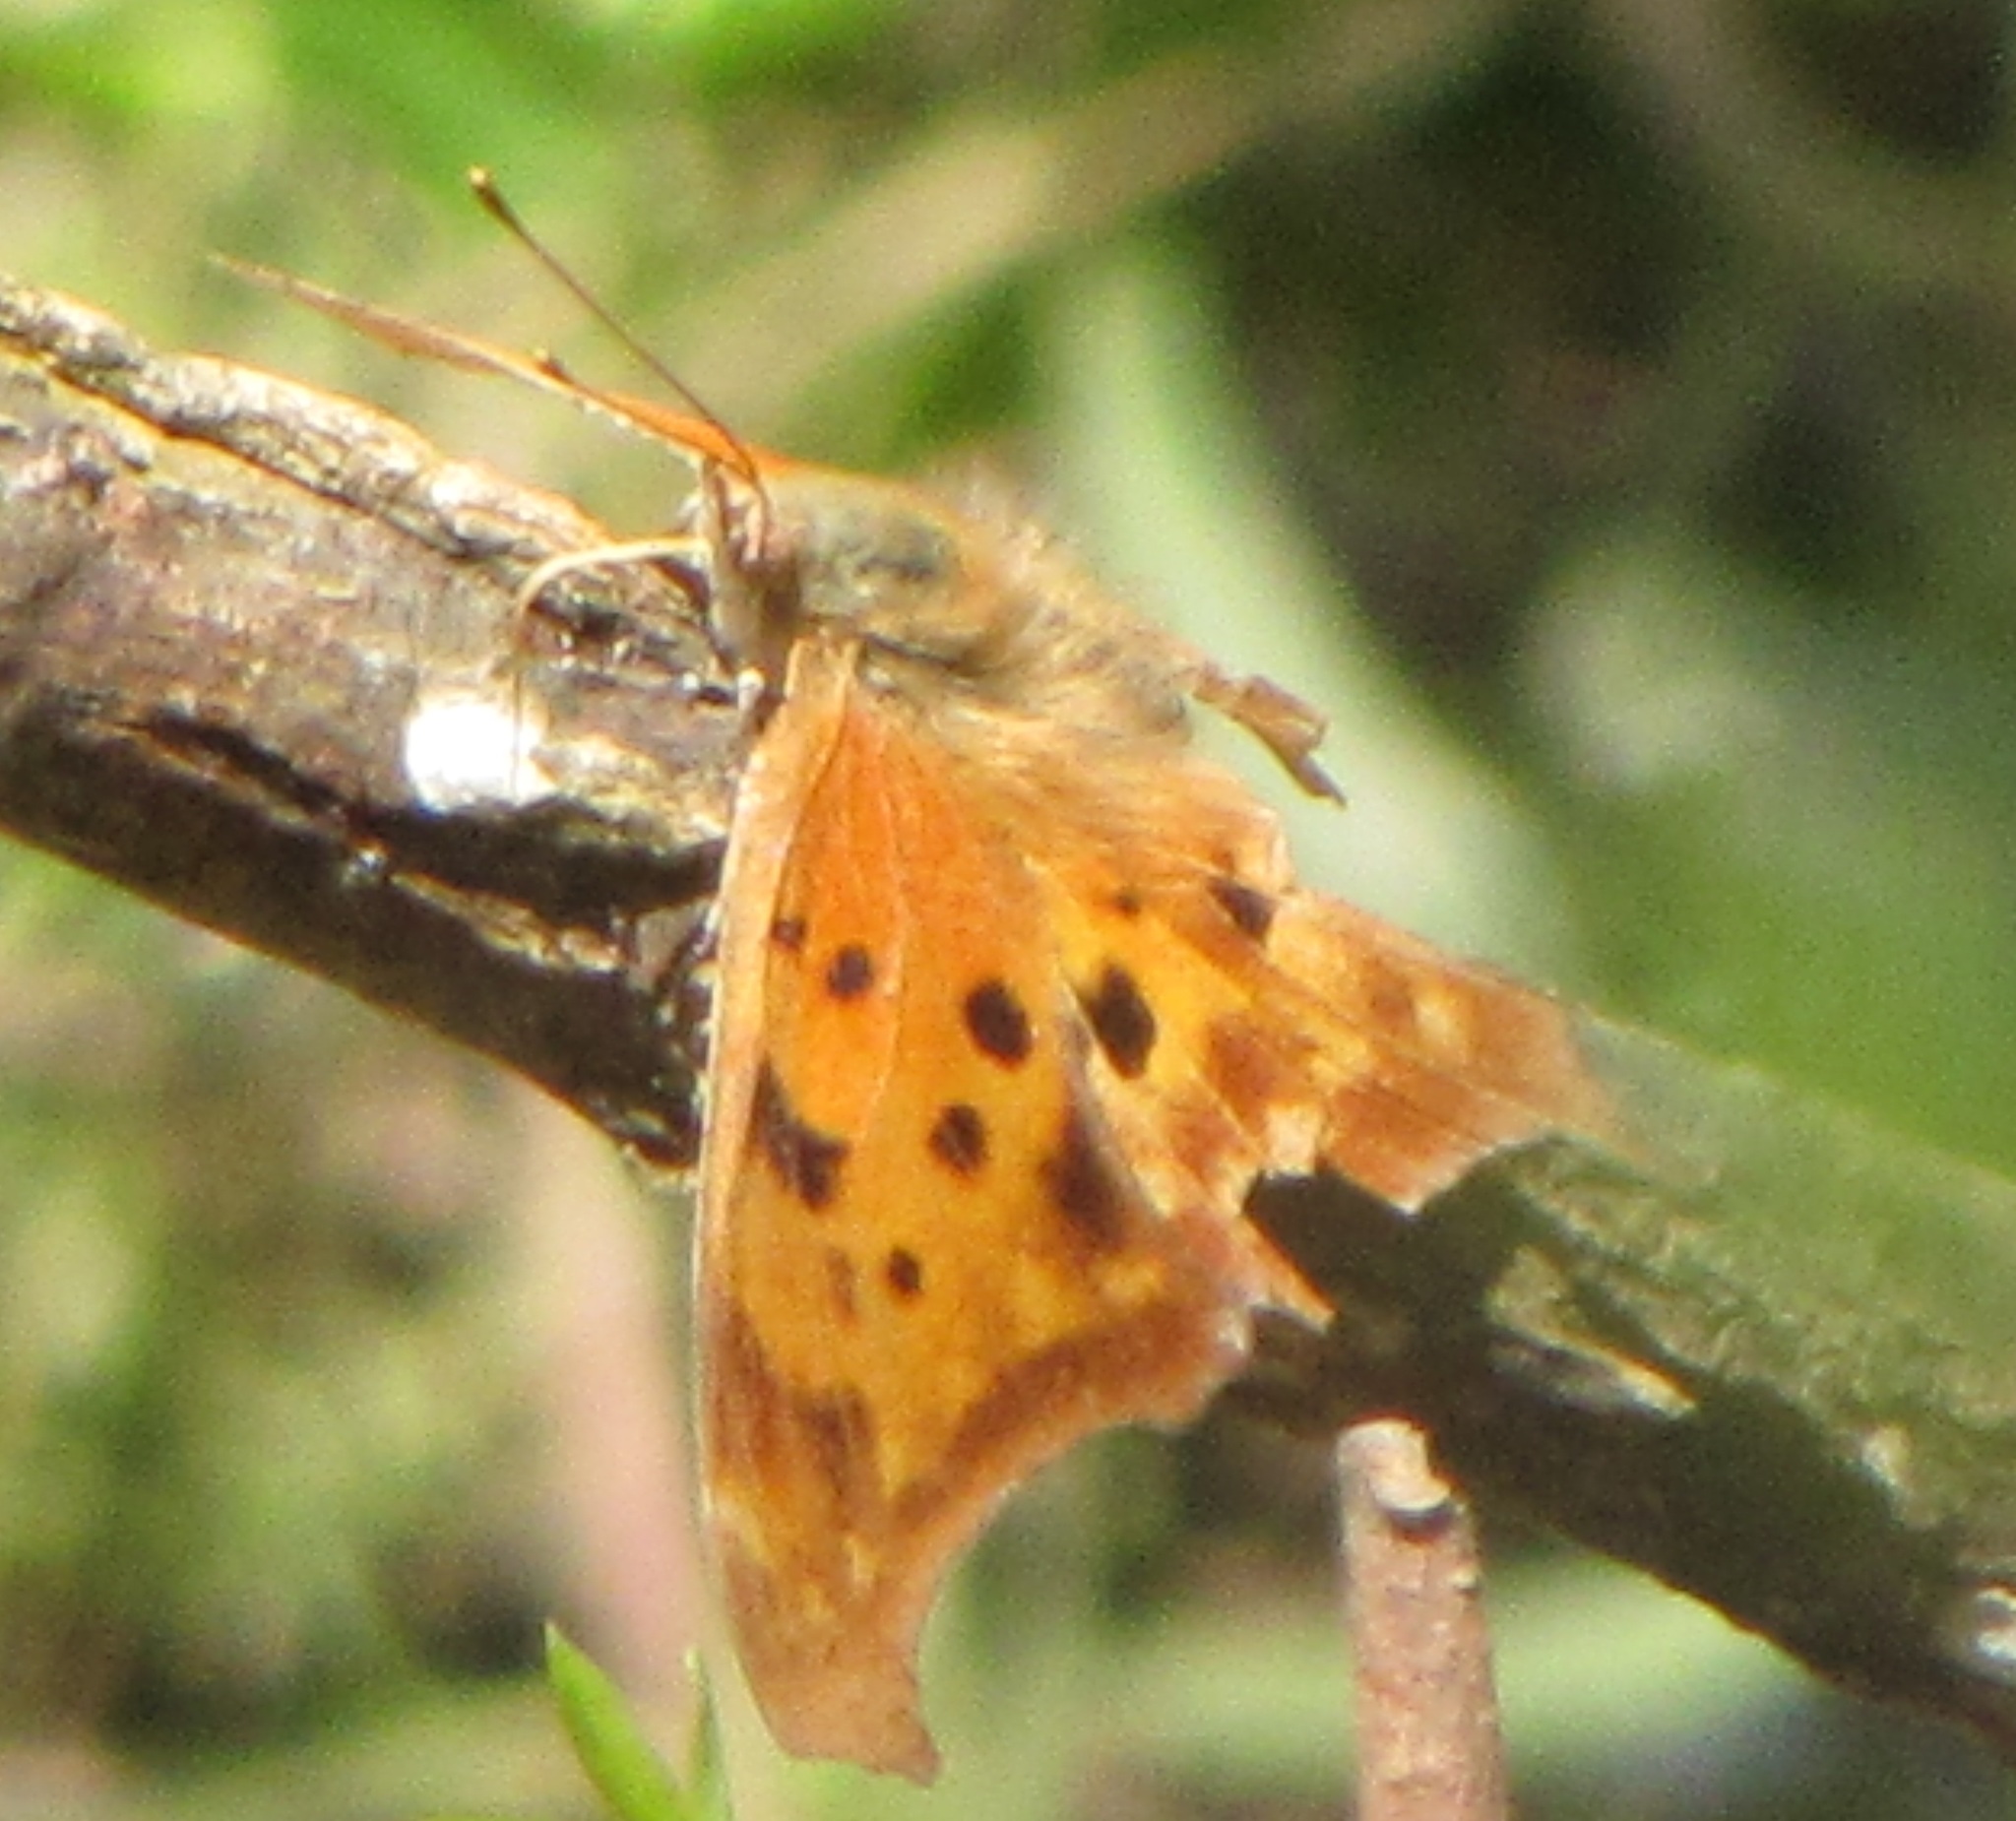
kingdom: Animalia
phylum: Arthropoda
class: Insecta
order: Lepidoptera
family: Nymphalidae
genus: Polygonia
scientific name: Polygonia interrogationis
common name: Question mark
